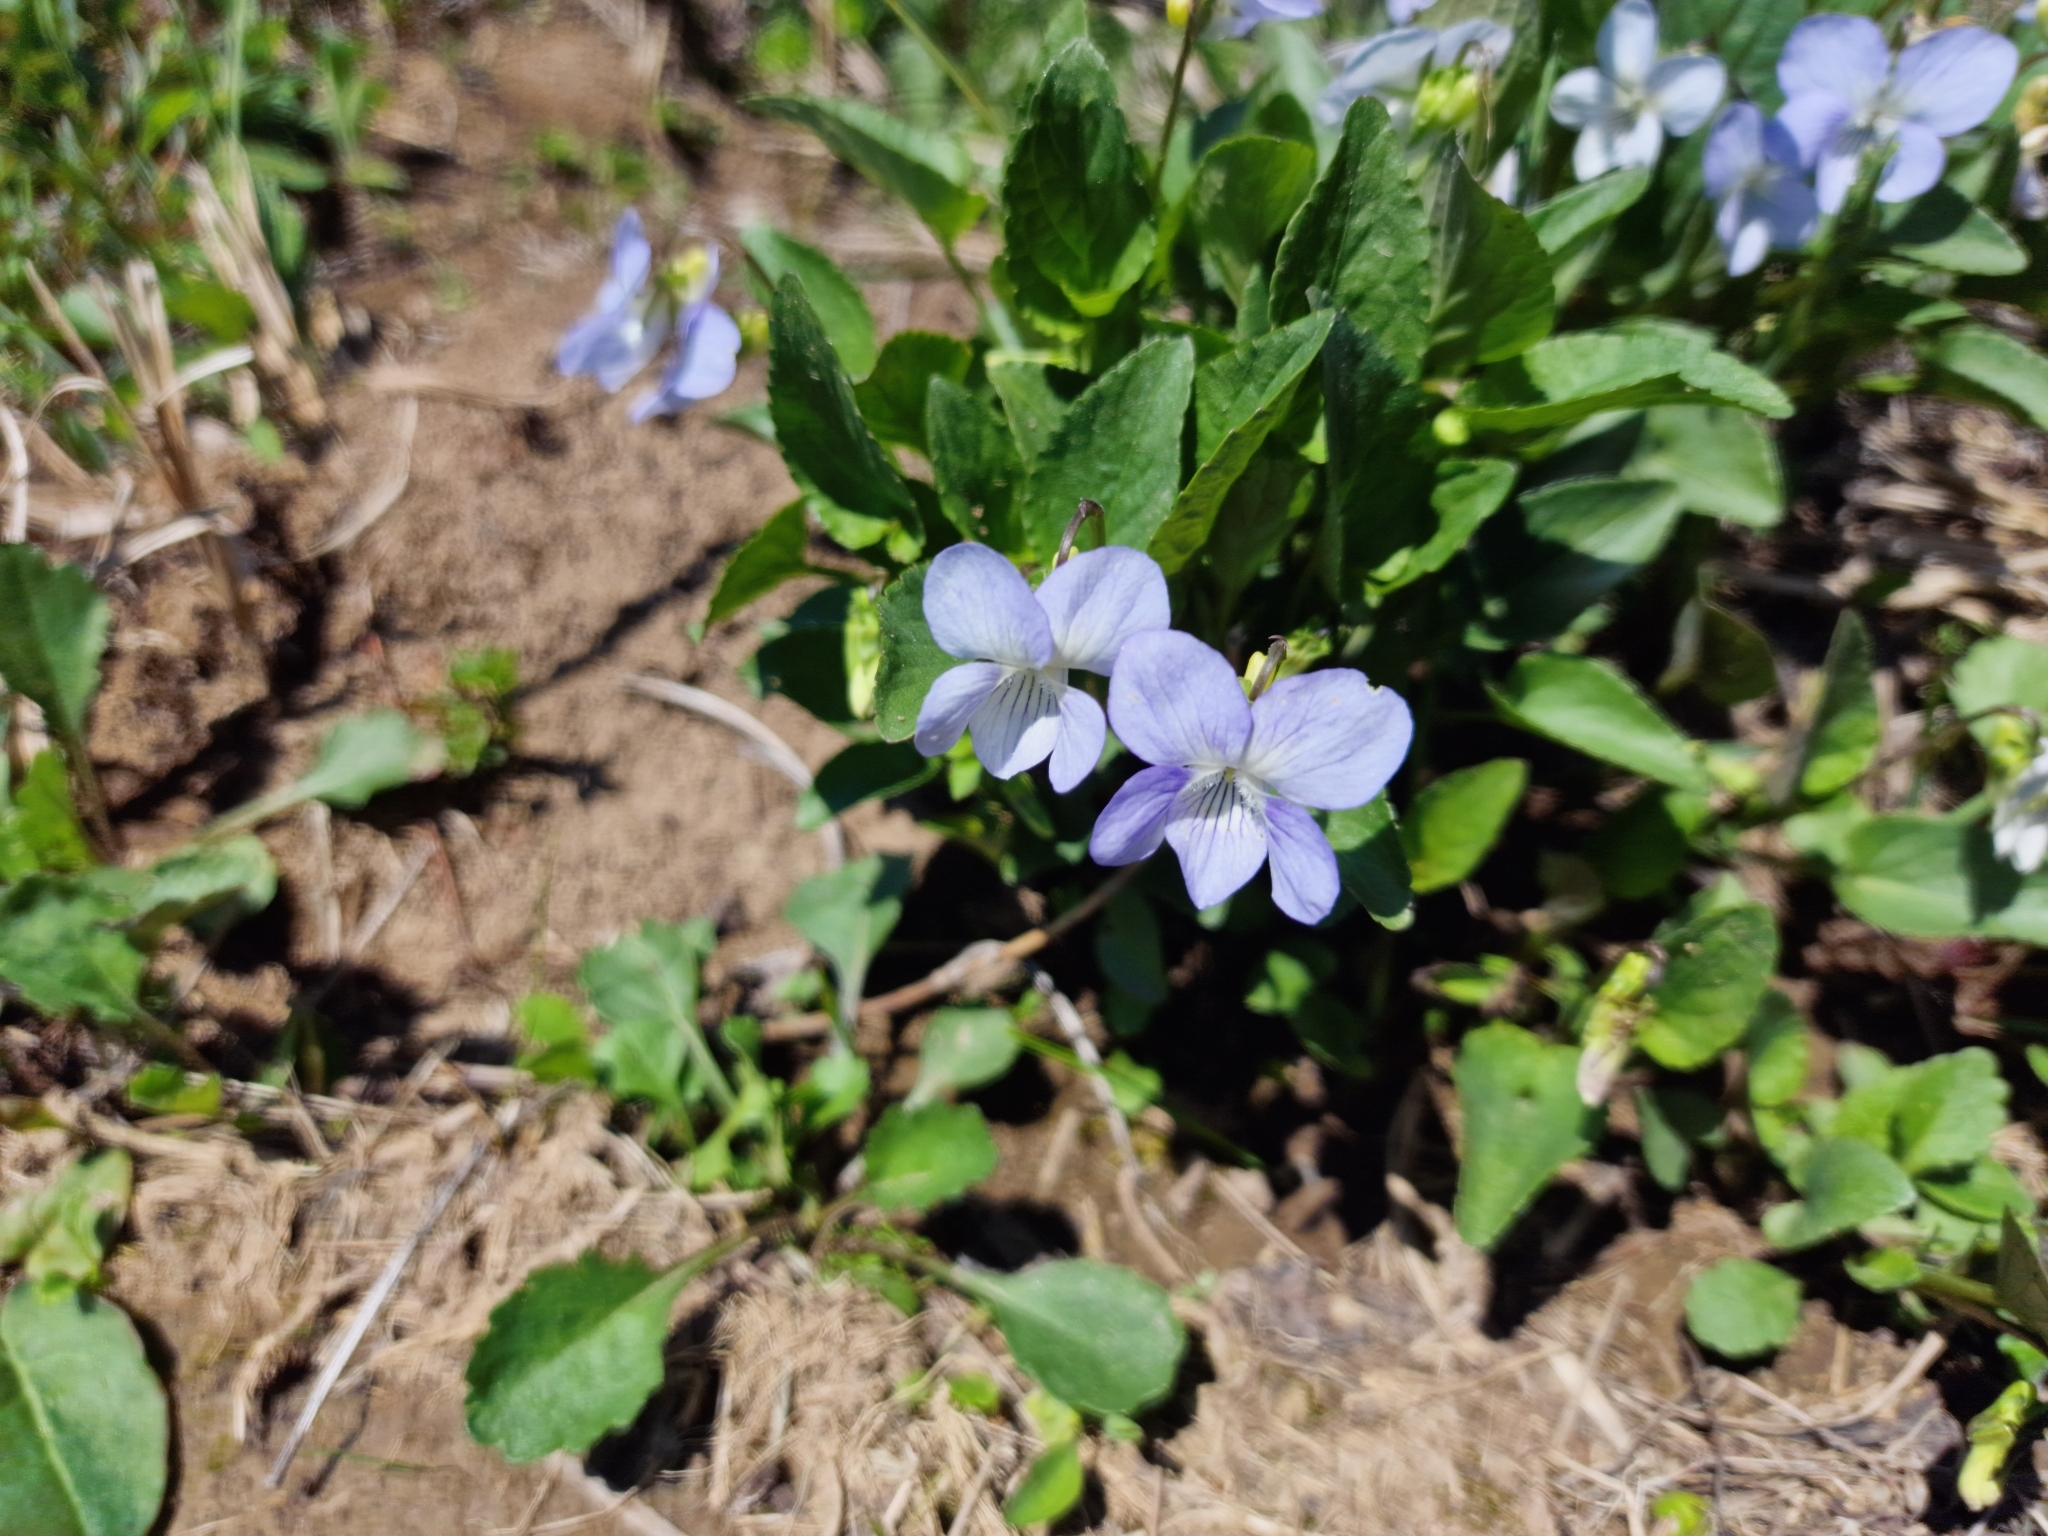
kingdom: Plantae
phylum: Tracheophyta
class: Magnoliopsida
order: Malpighiales
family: Violaceae
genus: Viola
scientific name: Viola canina
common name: Heath dog-violet
